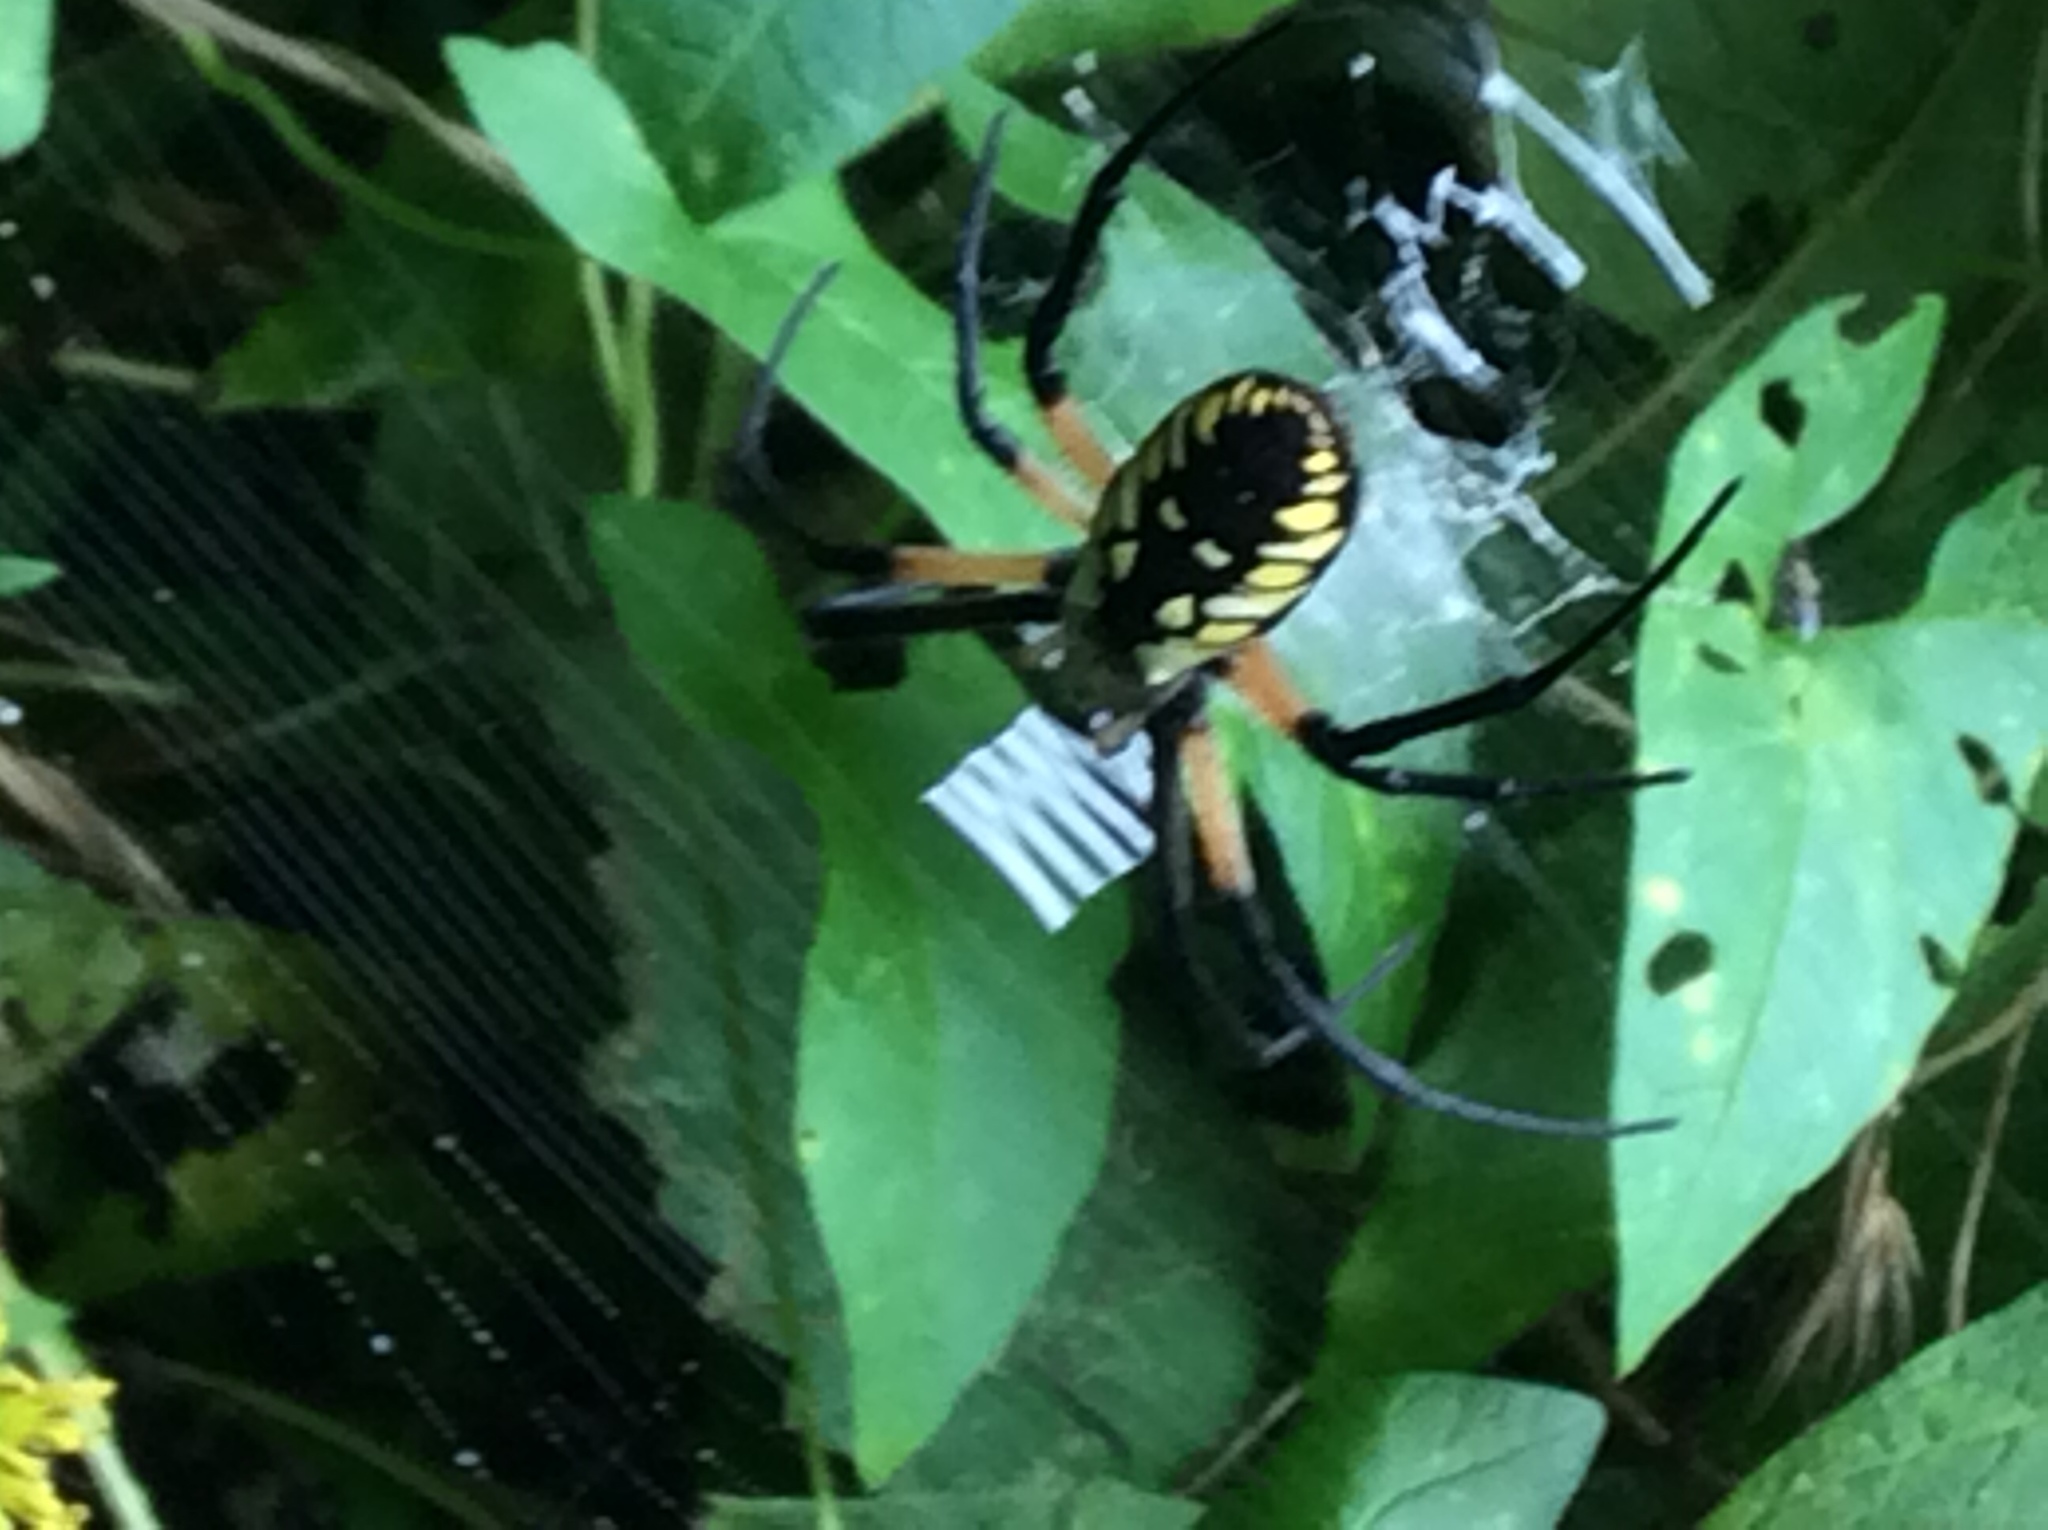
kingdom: Animalia
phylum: Arthropoda
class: Arachnida
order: Araneae
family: Araneidae
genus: Argiope
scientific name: Argiope aurantia
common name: Orb weavers
